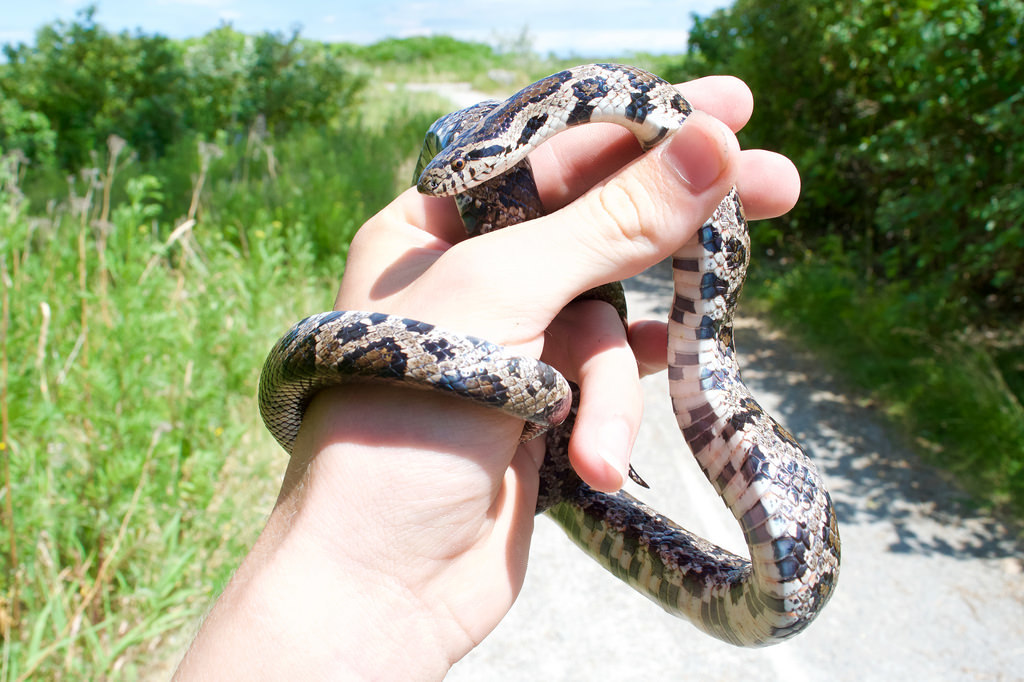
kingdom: Animalia
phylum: Chordata
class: Squamata
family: Colubridae
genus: Lampropeltis
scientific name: Lampropeltis triangulum
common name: Eastern milksnake
